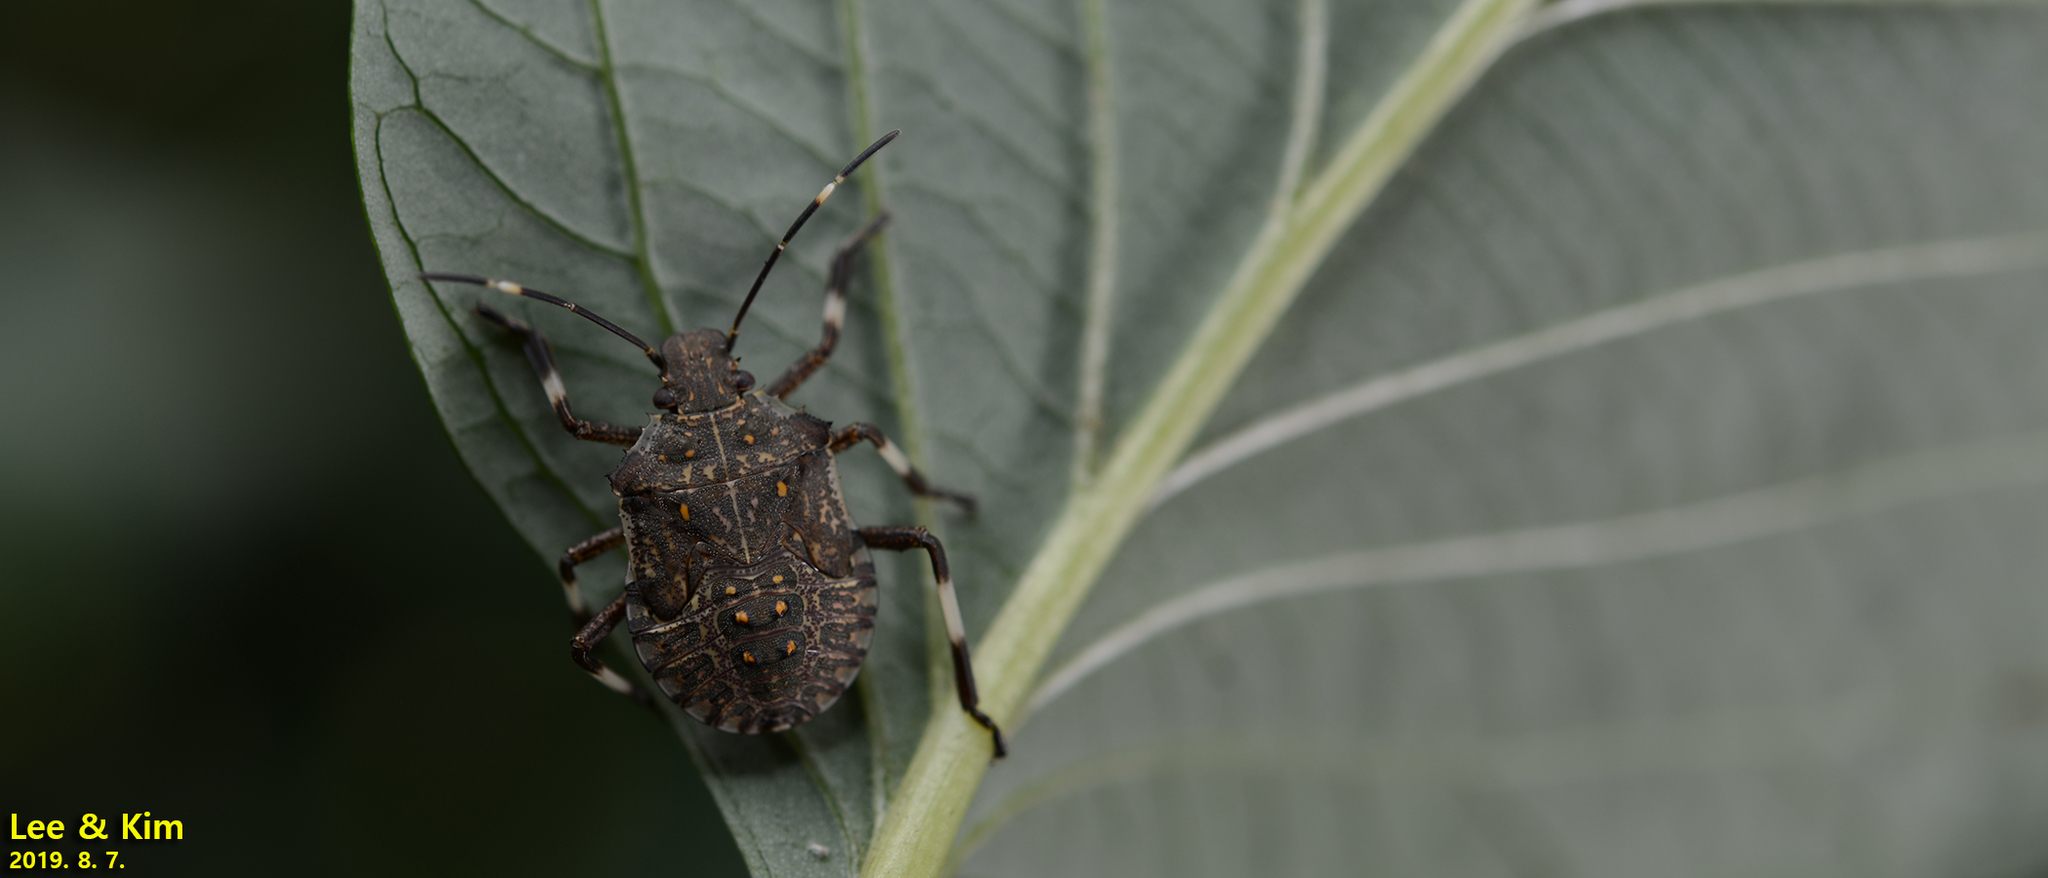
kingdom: Animalia
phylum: Arthropoda
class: Insecta
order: Hemiptera
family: Pentatomidae
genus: Halyomorpha
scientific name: Halyomorpha halys
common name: Brown marmorated stink bug
